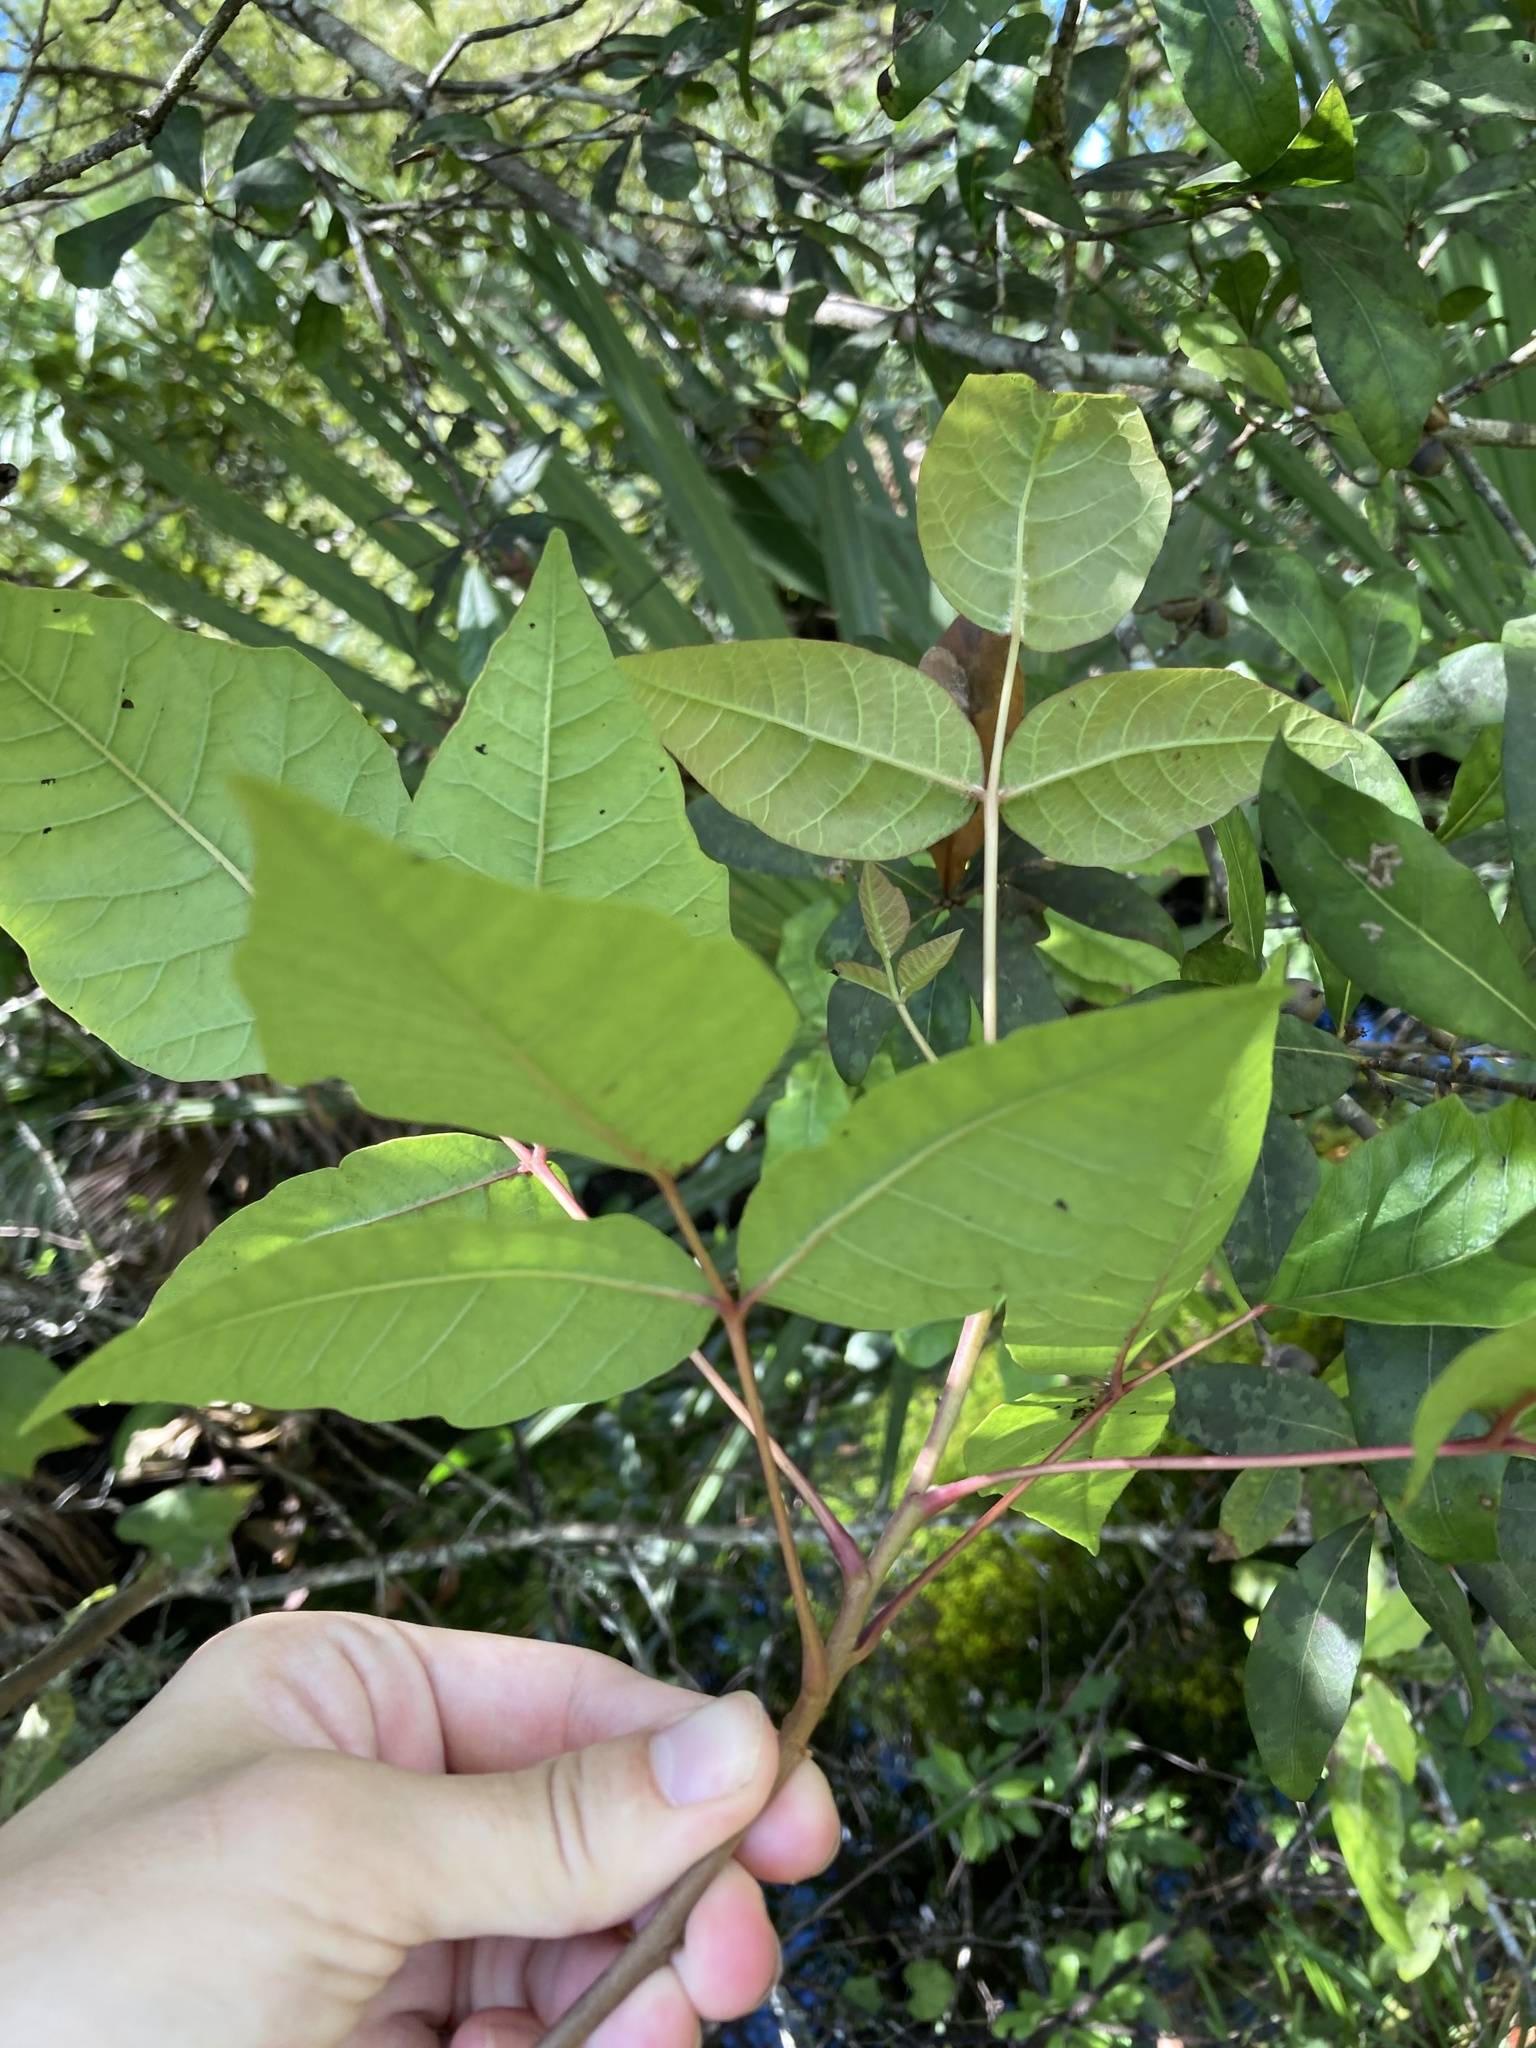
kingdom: Plantae
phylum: Tracheophyta
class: Magnoliopsida
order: Sapindales
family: Anacardiaceae
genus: Toxicodendron
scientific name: Toxicodendron radicans
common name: Poison ivy
